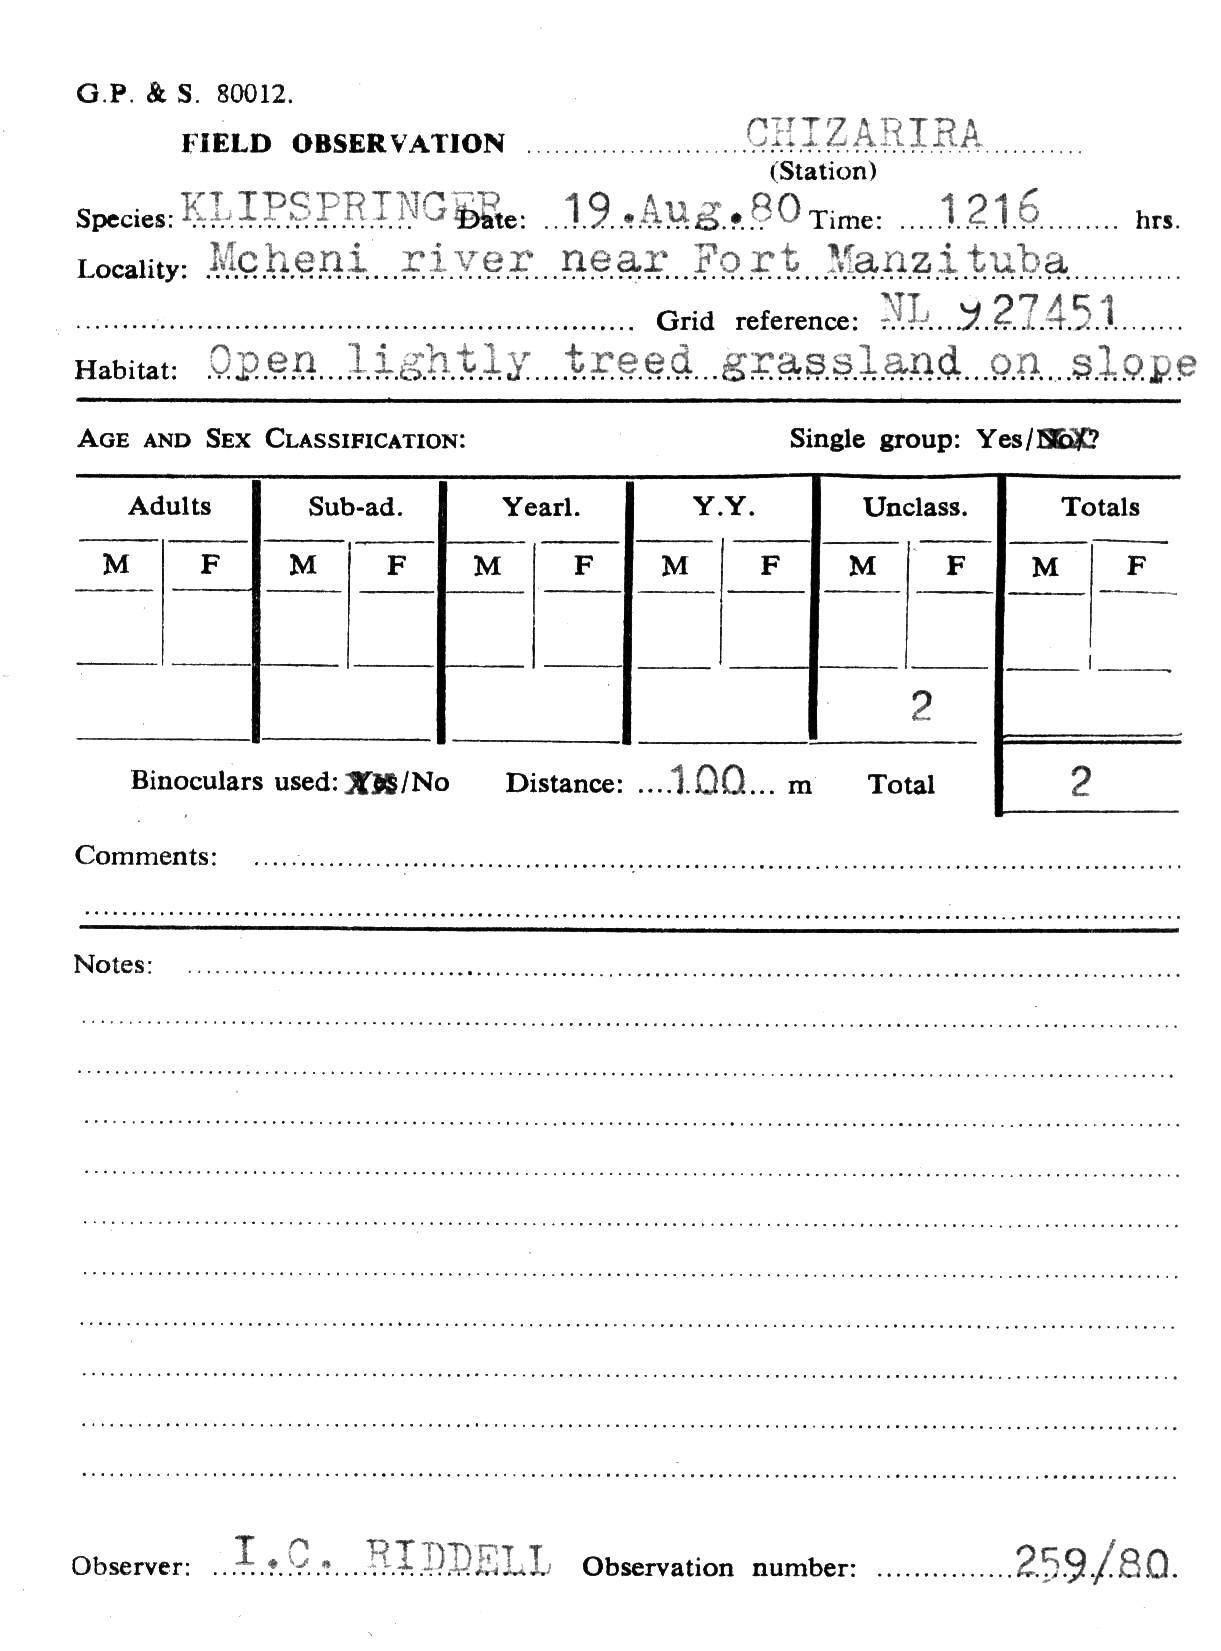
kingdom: Animalia
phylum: Chordata
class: Mammalia
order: Artiodactyla
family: Bovidae
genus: Oreotragus
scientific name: Oreotragus oreotragus
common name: Klipspringer
